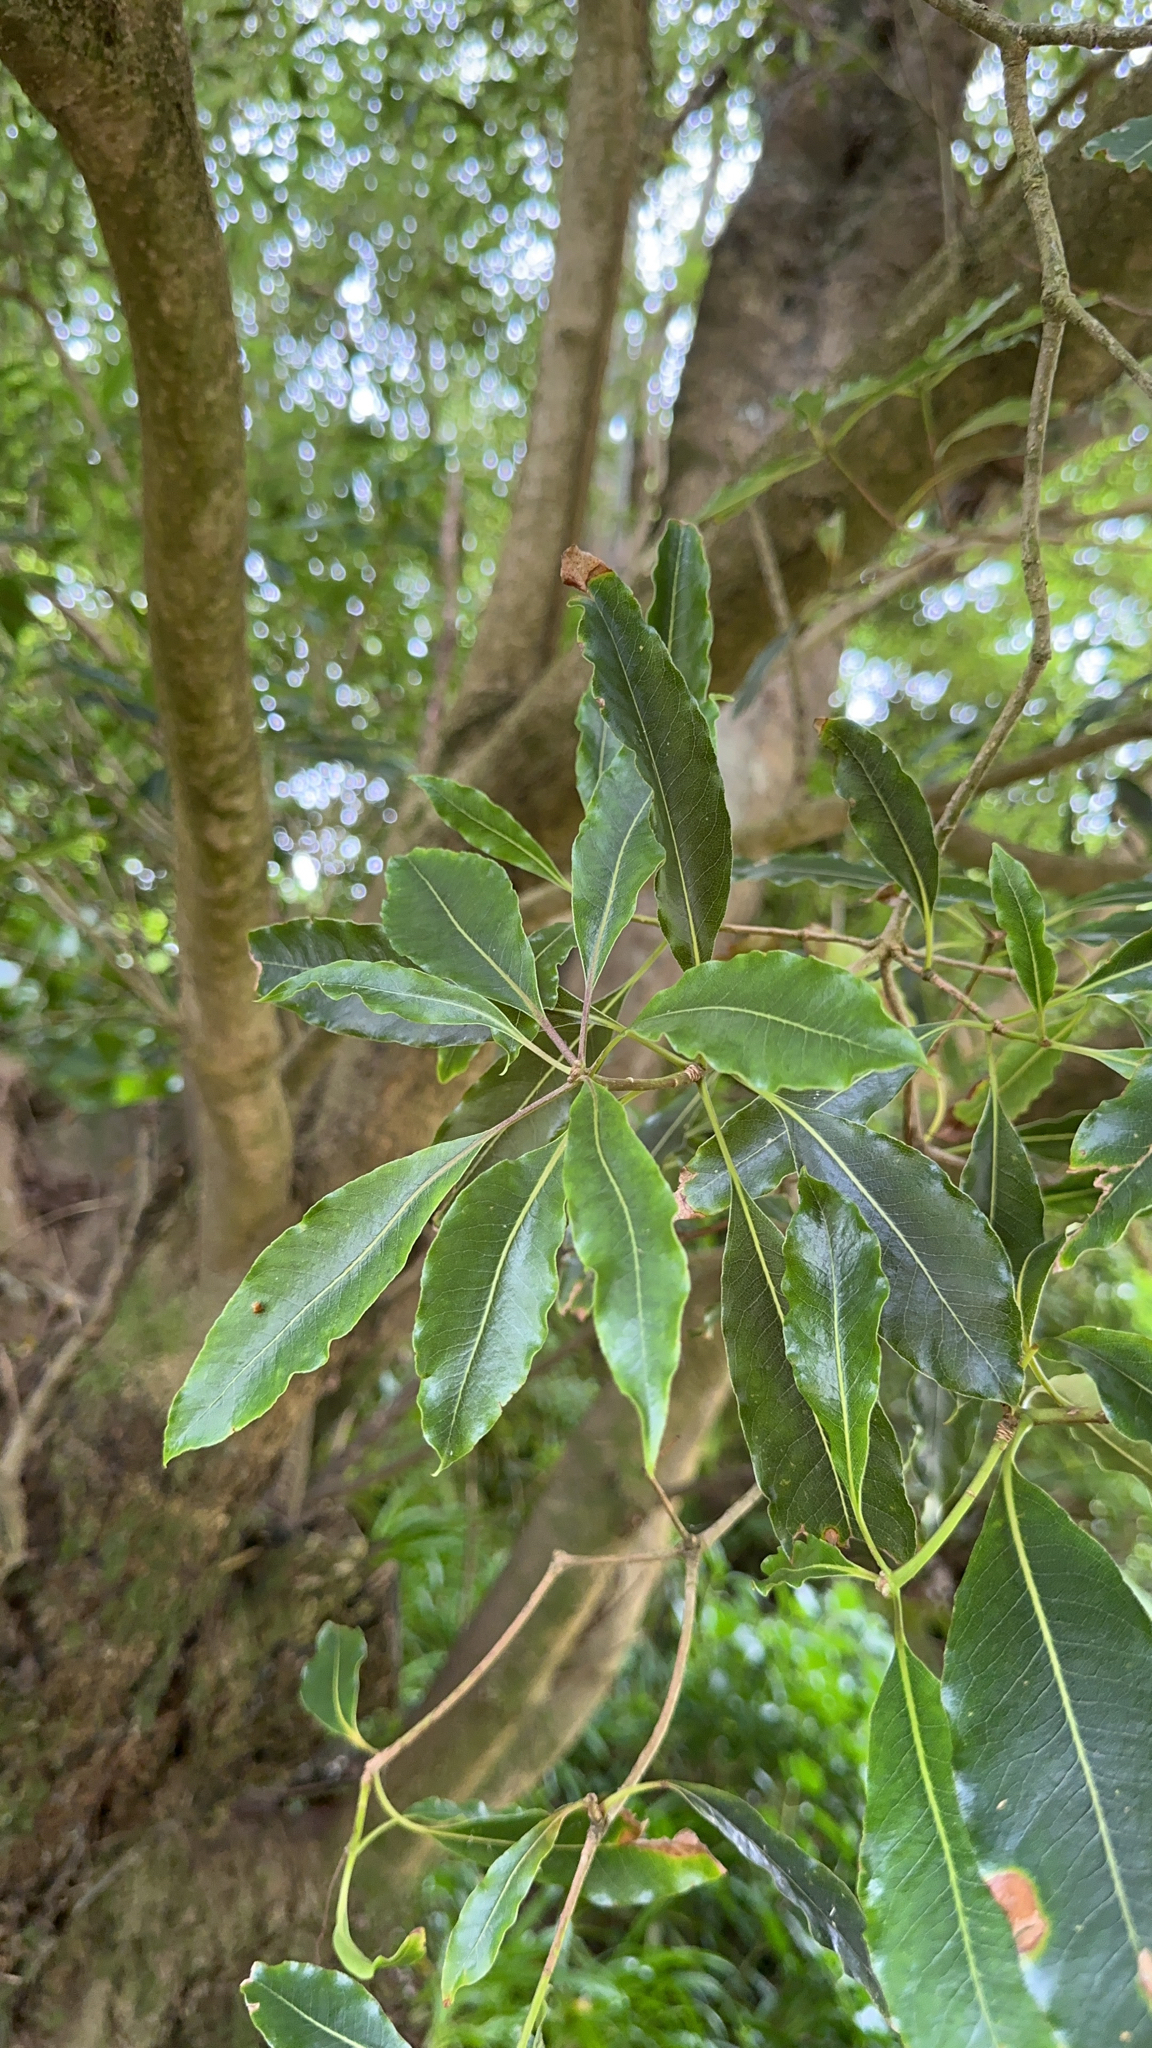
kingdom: Plantae
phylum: Tracheophyta
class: Magnoliopsida
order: Apiales
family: Pittosporaceae
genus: Pittosporum
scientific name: Pittosporum undulatum
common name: Australian cheesewood
